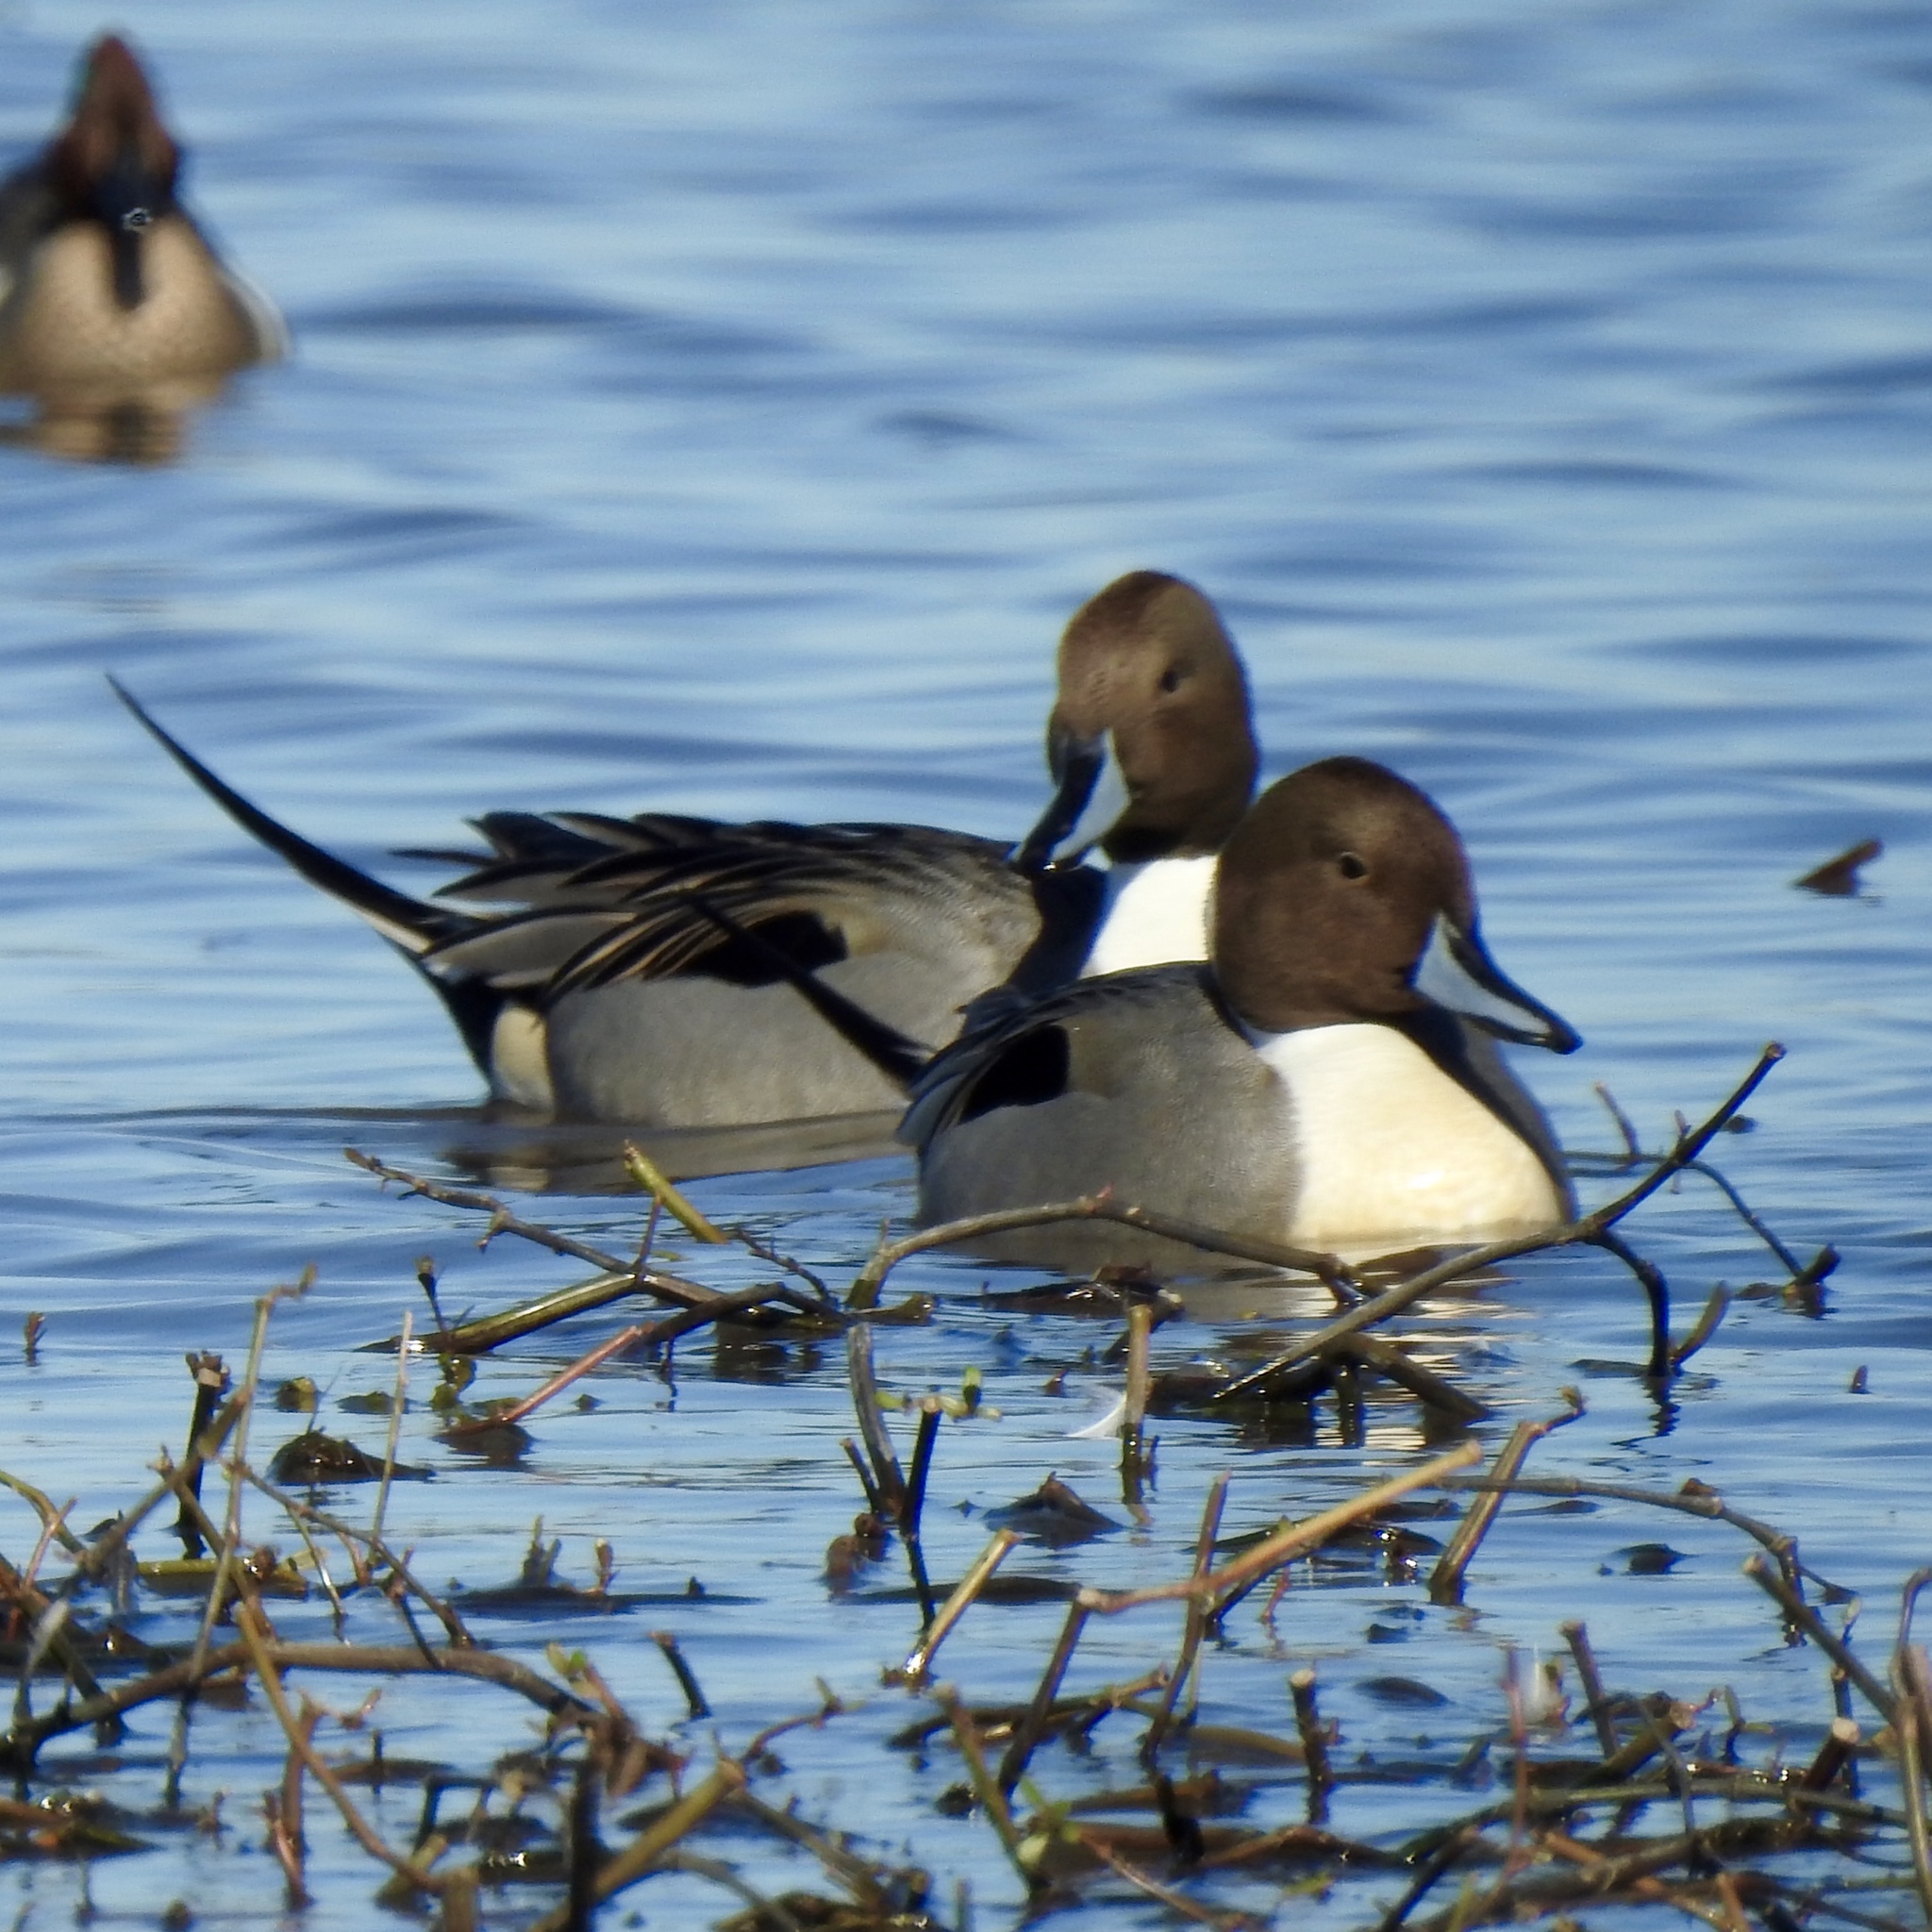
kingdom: Animalia
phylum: Chordata
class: Aves
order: Anseriformes
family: Anatidae
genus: Anas
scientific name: Anas acuta
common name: Northern pintail
